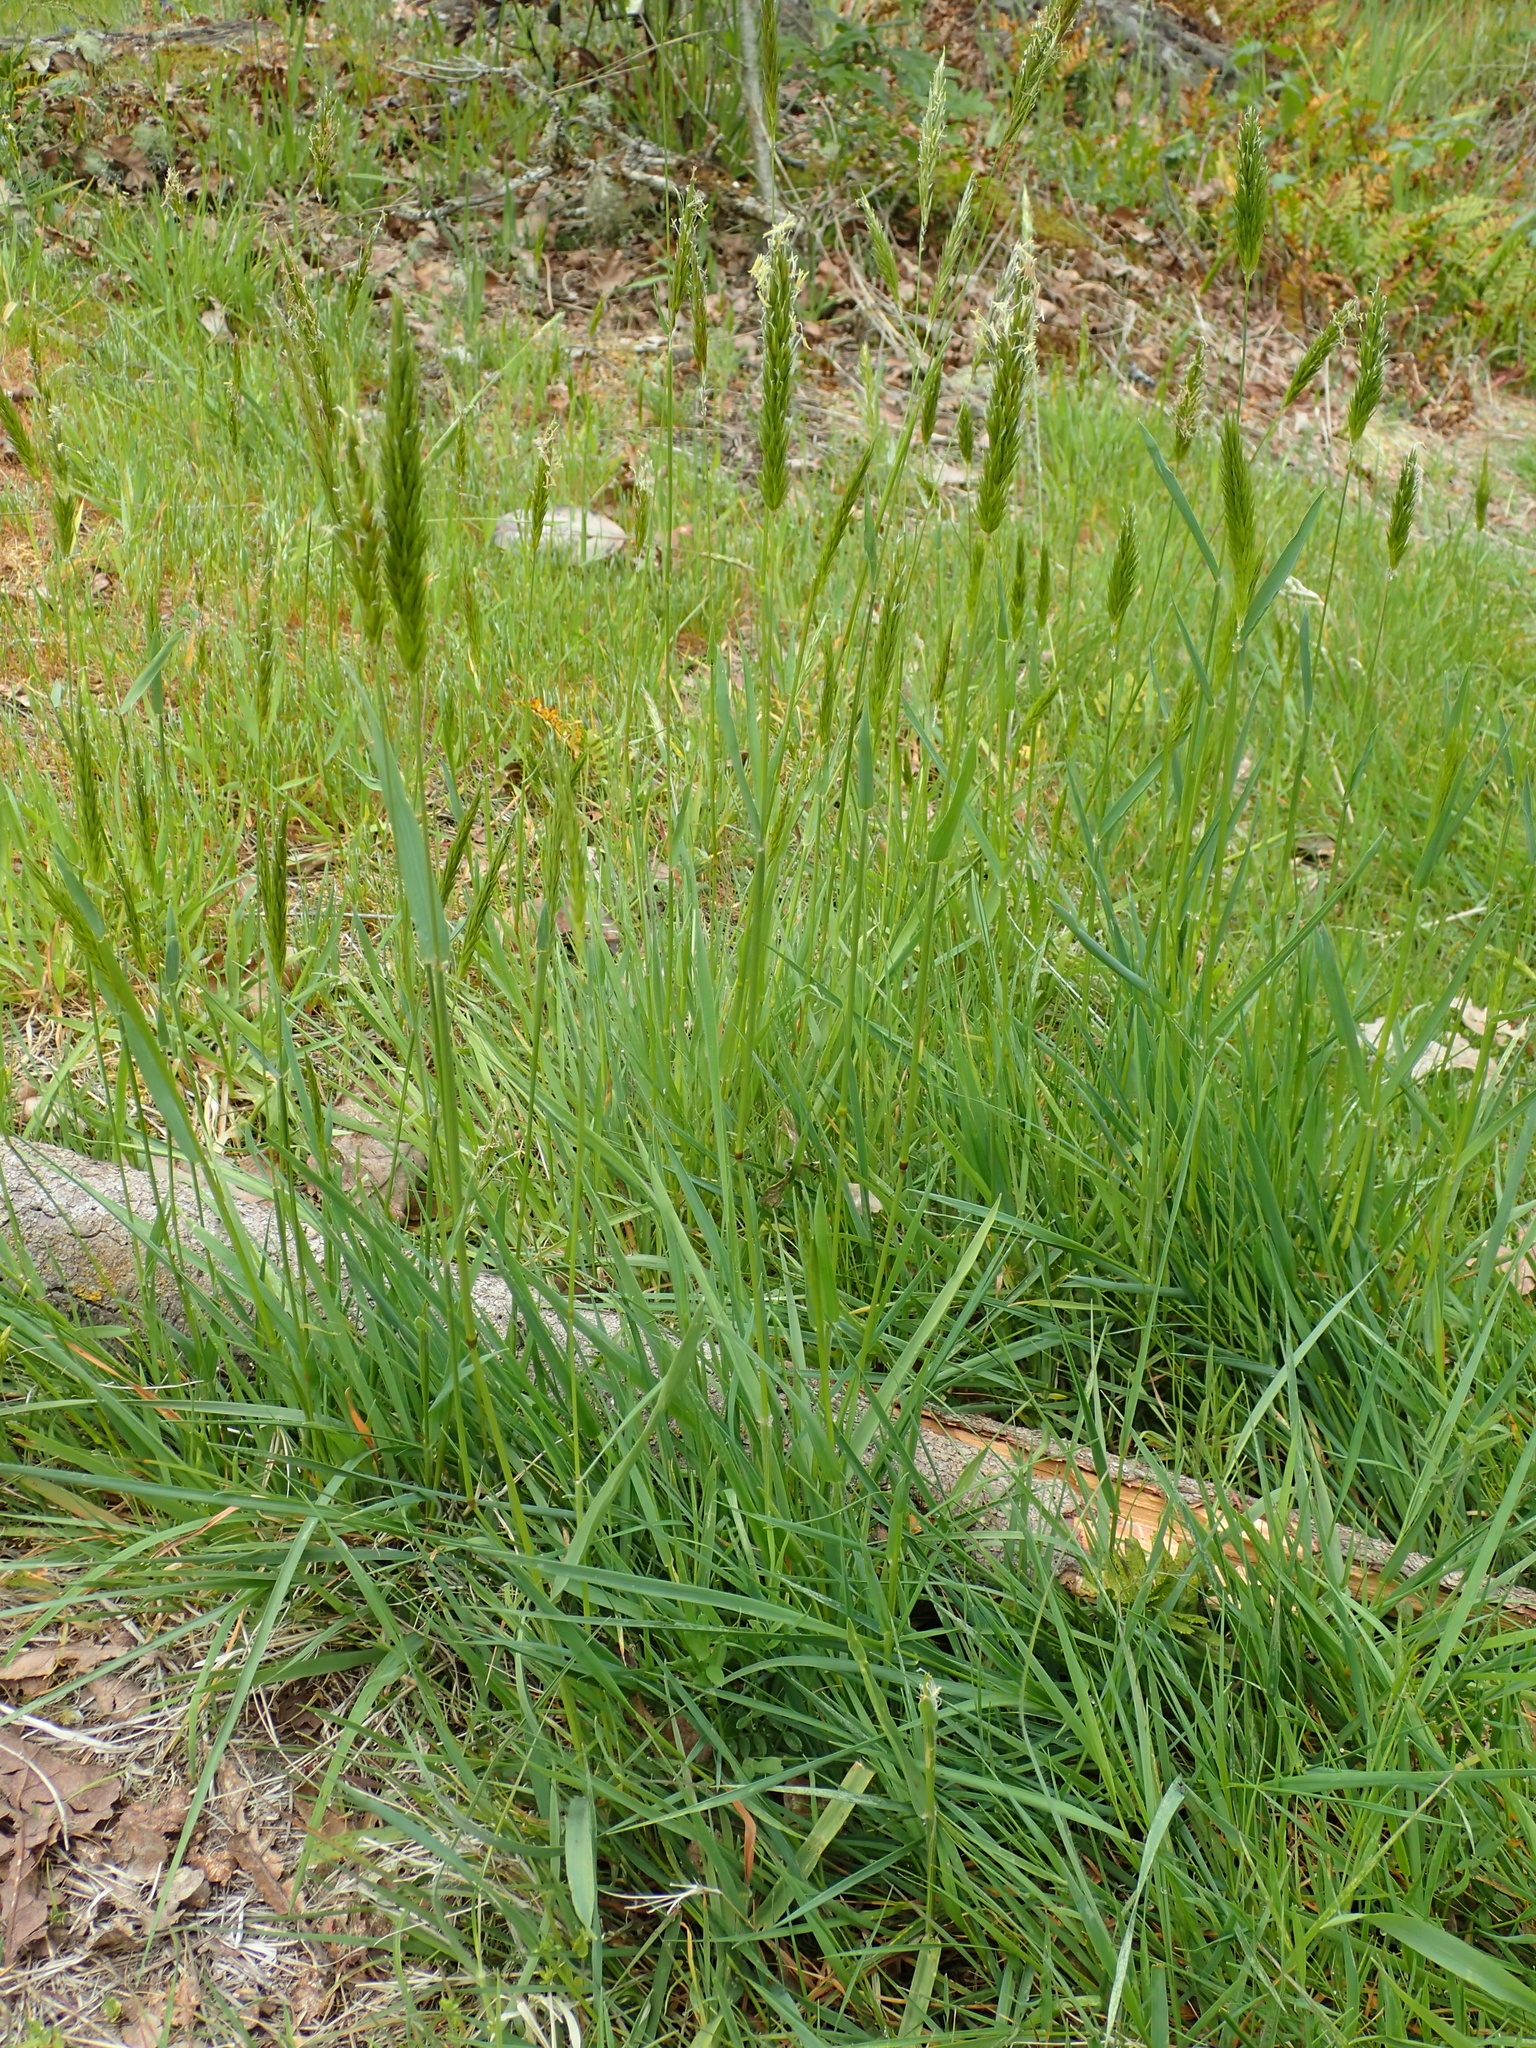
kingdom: Plantae
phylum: Tracheophyta
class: Liliopsida
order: Poales
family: Poaceae
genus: Anthoxanthum
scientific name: Anthoxanthum odoratum
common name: Sweet vernalgrass
